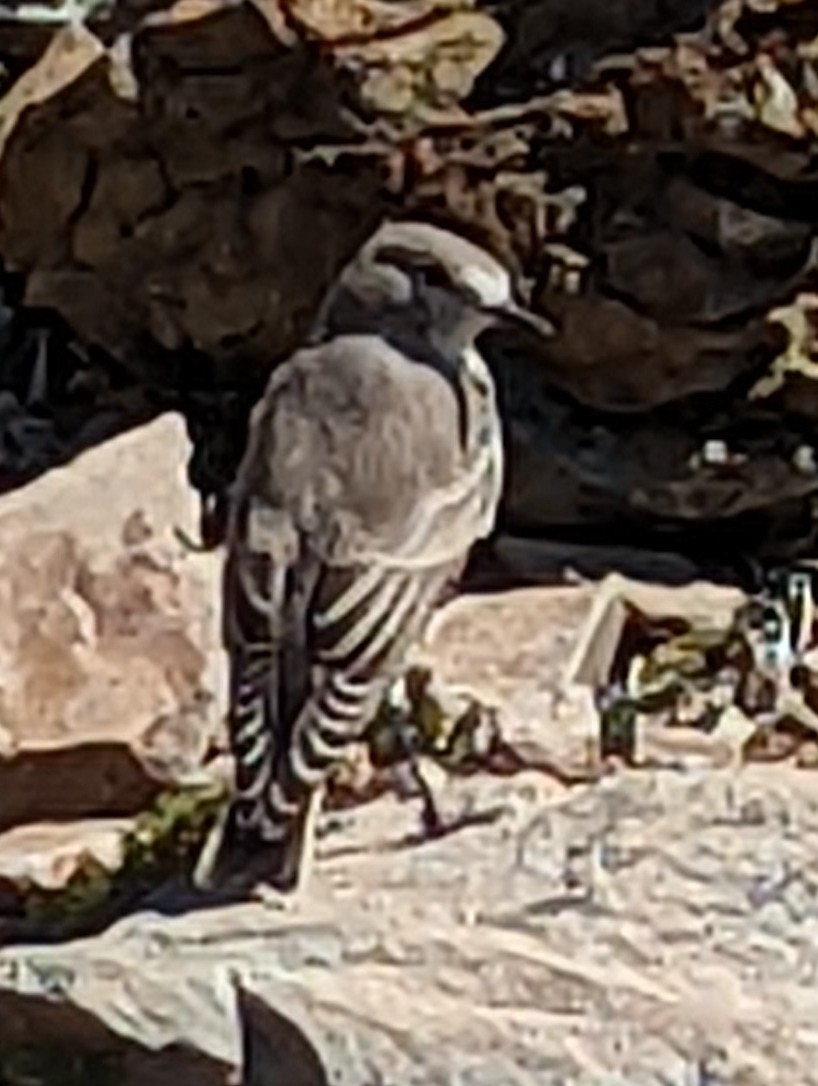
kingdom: Animalia
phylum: Chordata
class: Aves
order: Passeriformes
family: Tyrannidae
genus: Muscisaxicola
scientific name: Muscisaxicola flavinucha
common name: Ochre-naped ground tyrant
